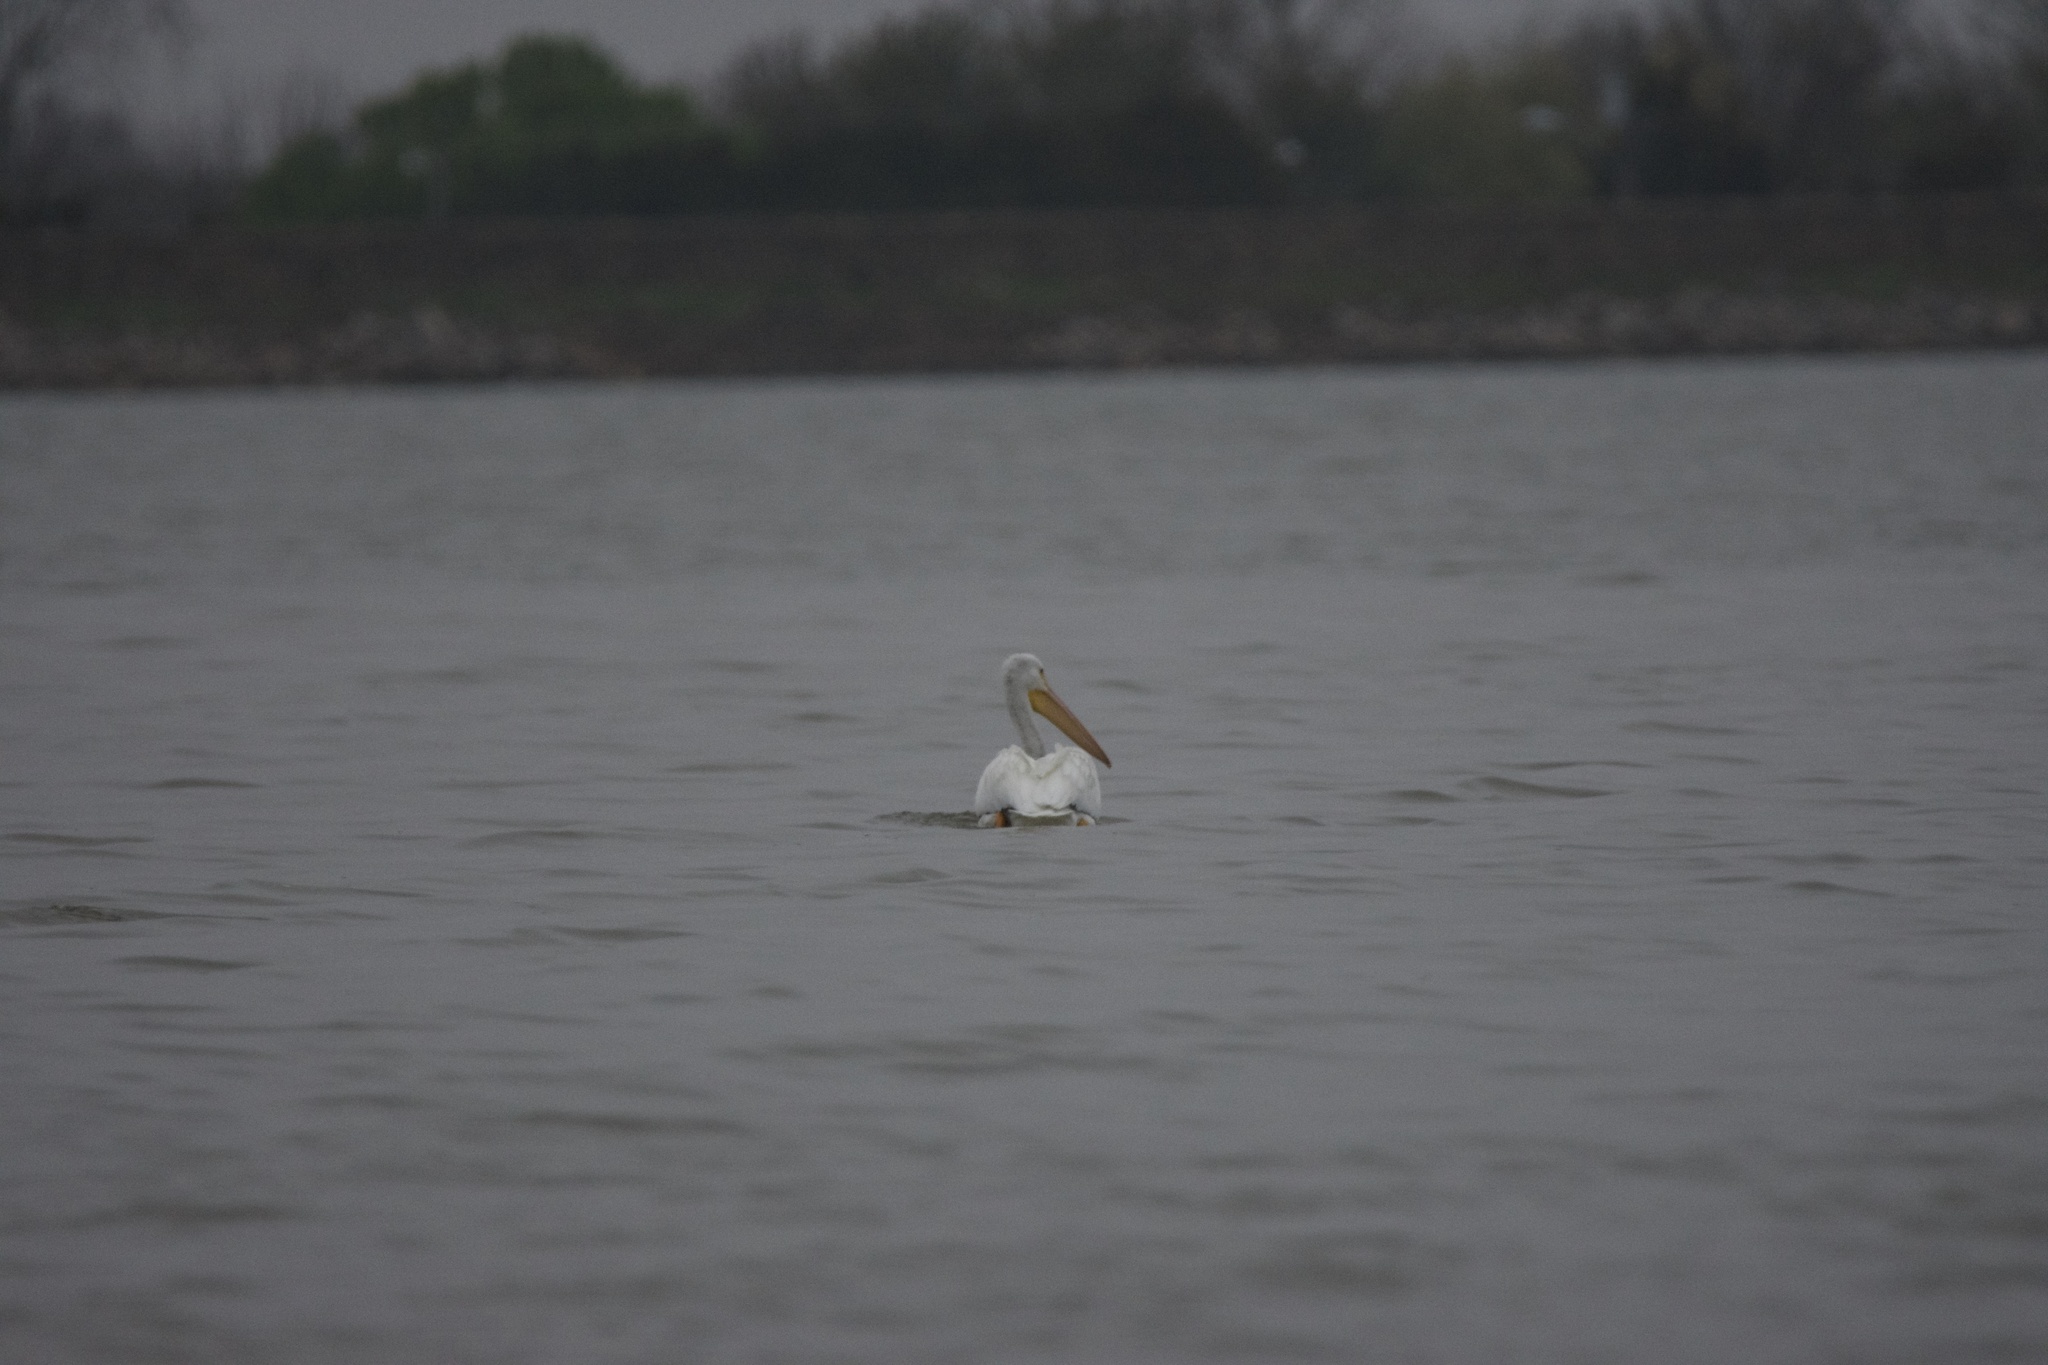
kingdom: Animalia
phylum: Chordata
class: Aves
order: Pelecaniformes
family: Pelecanidae
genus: Pelecanus
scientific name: Pelecanus erythrorhynchos
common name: American white pelican
